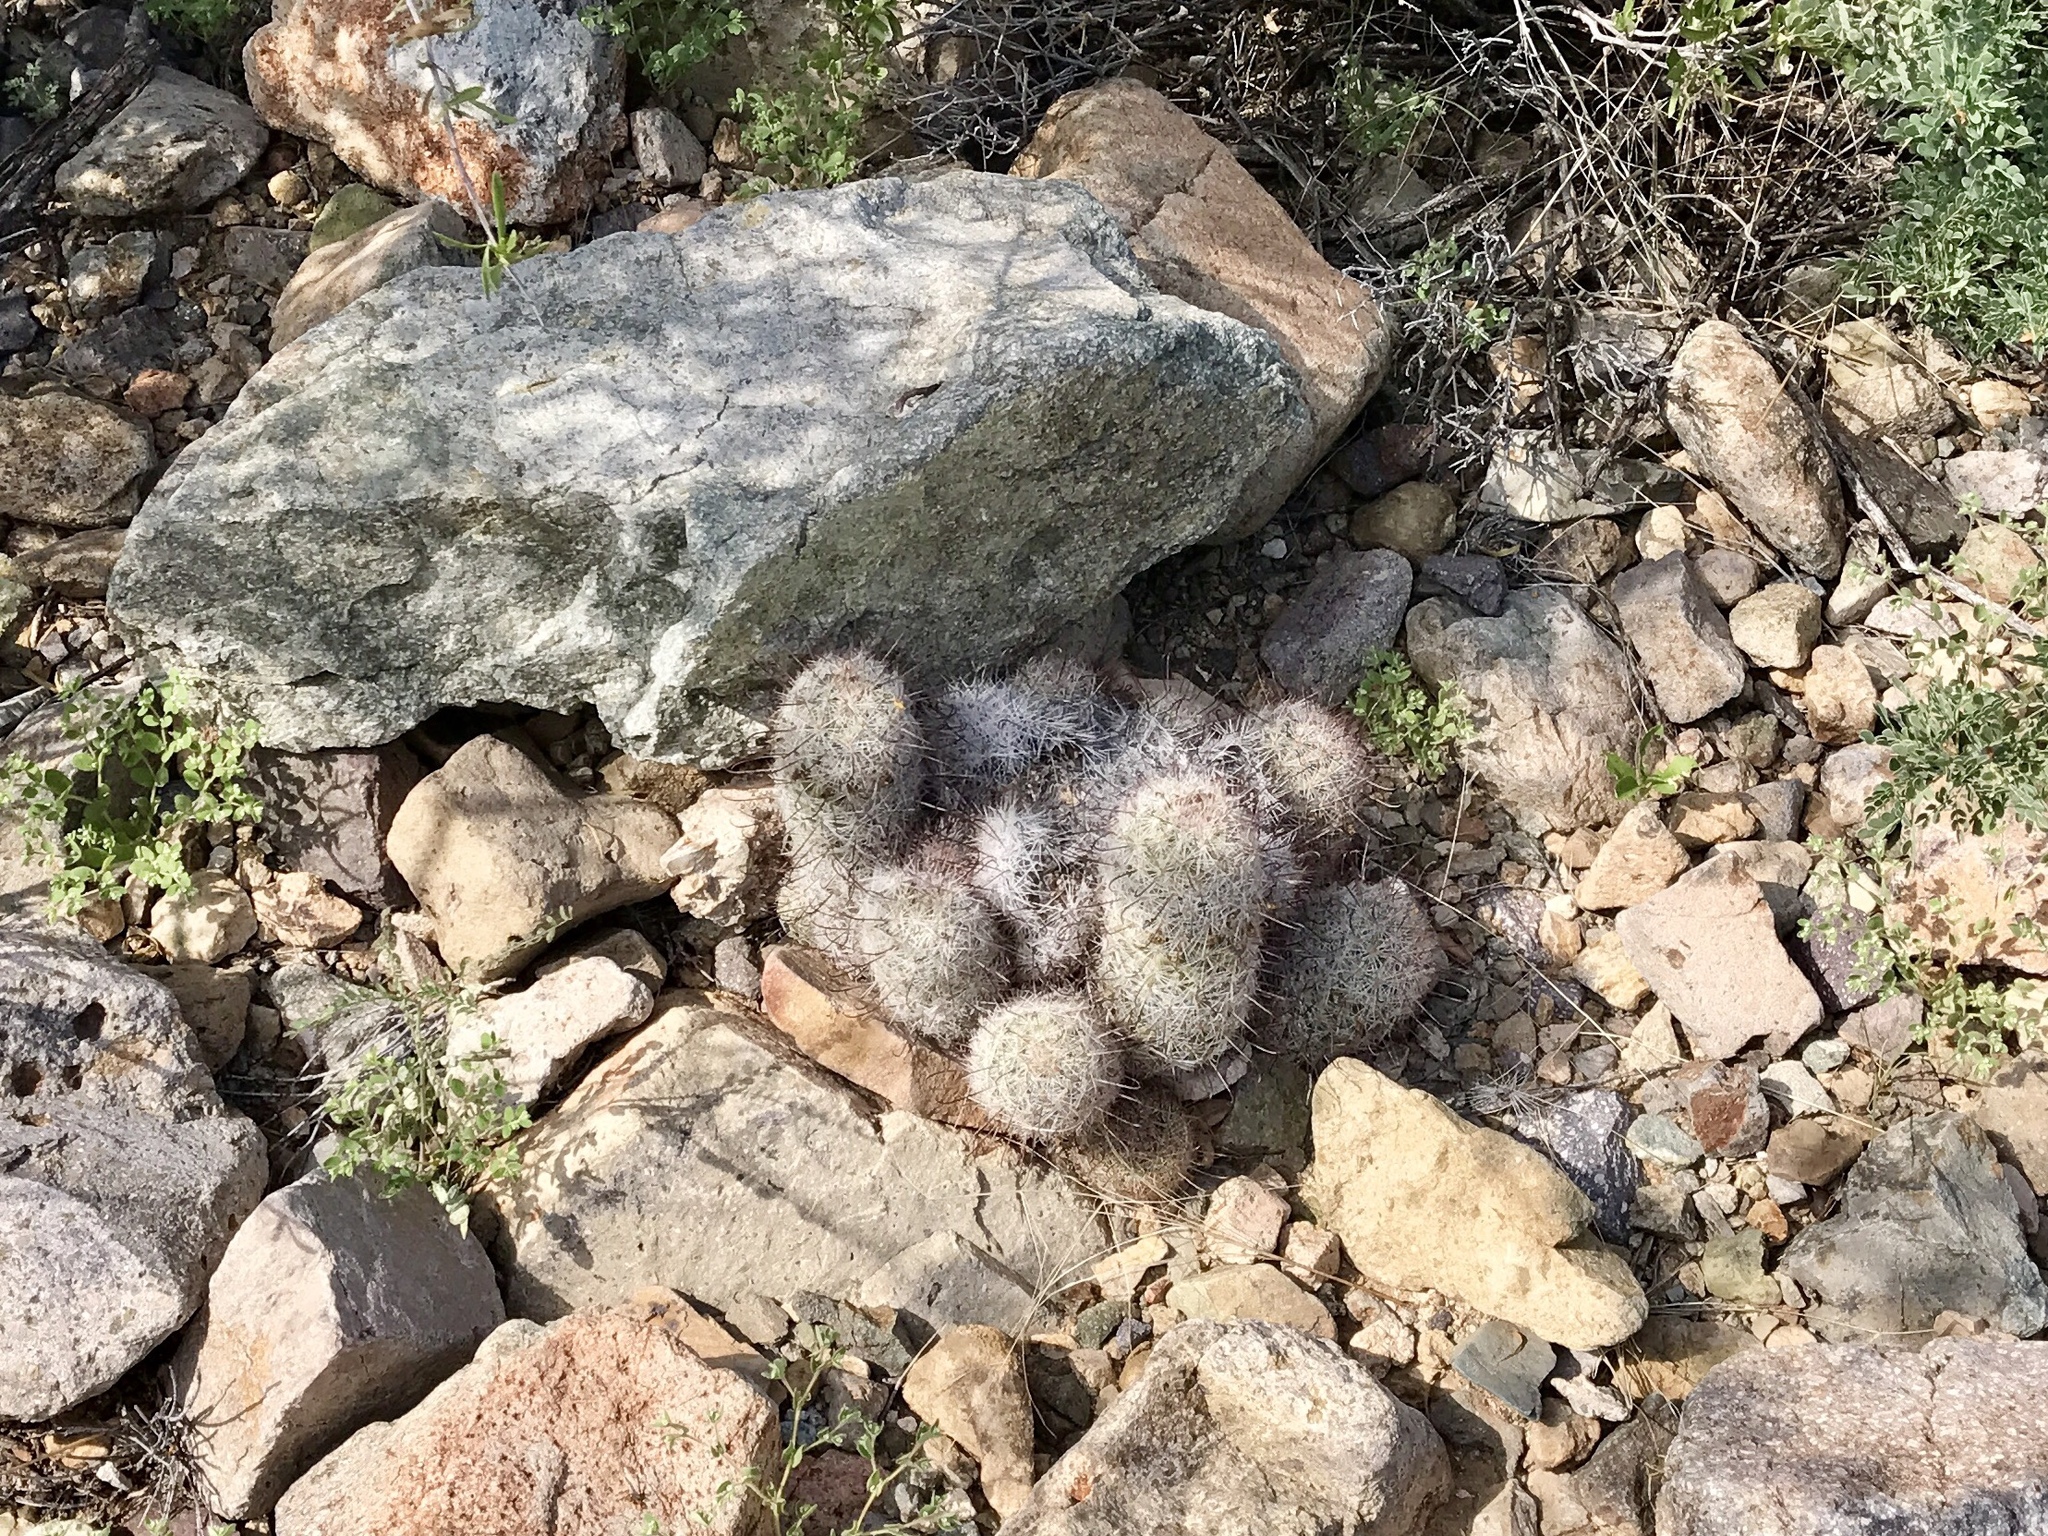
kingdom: Plantae
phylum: Tracheophyta
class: Magnoliopsida
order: Caryophyllales
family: Cactaceae
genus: Cochemiea
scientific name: Cochemiea grahamii
